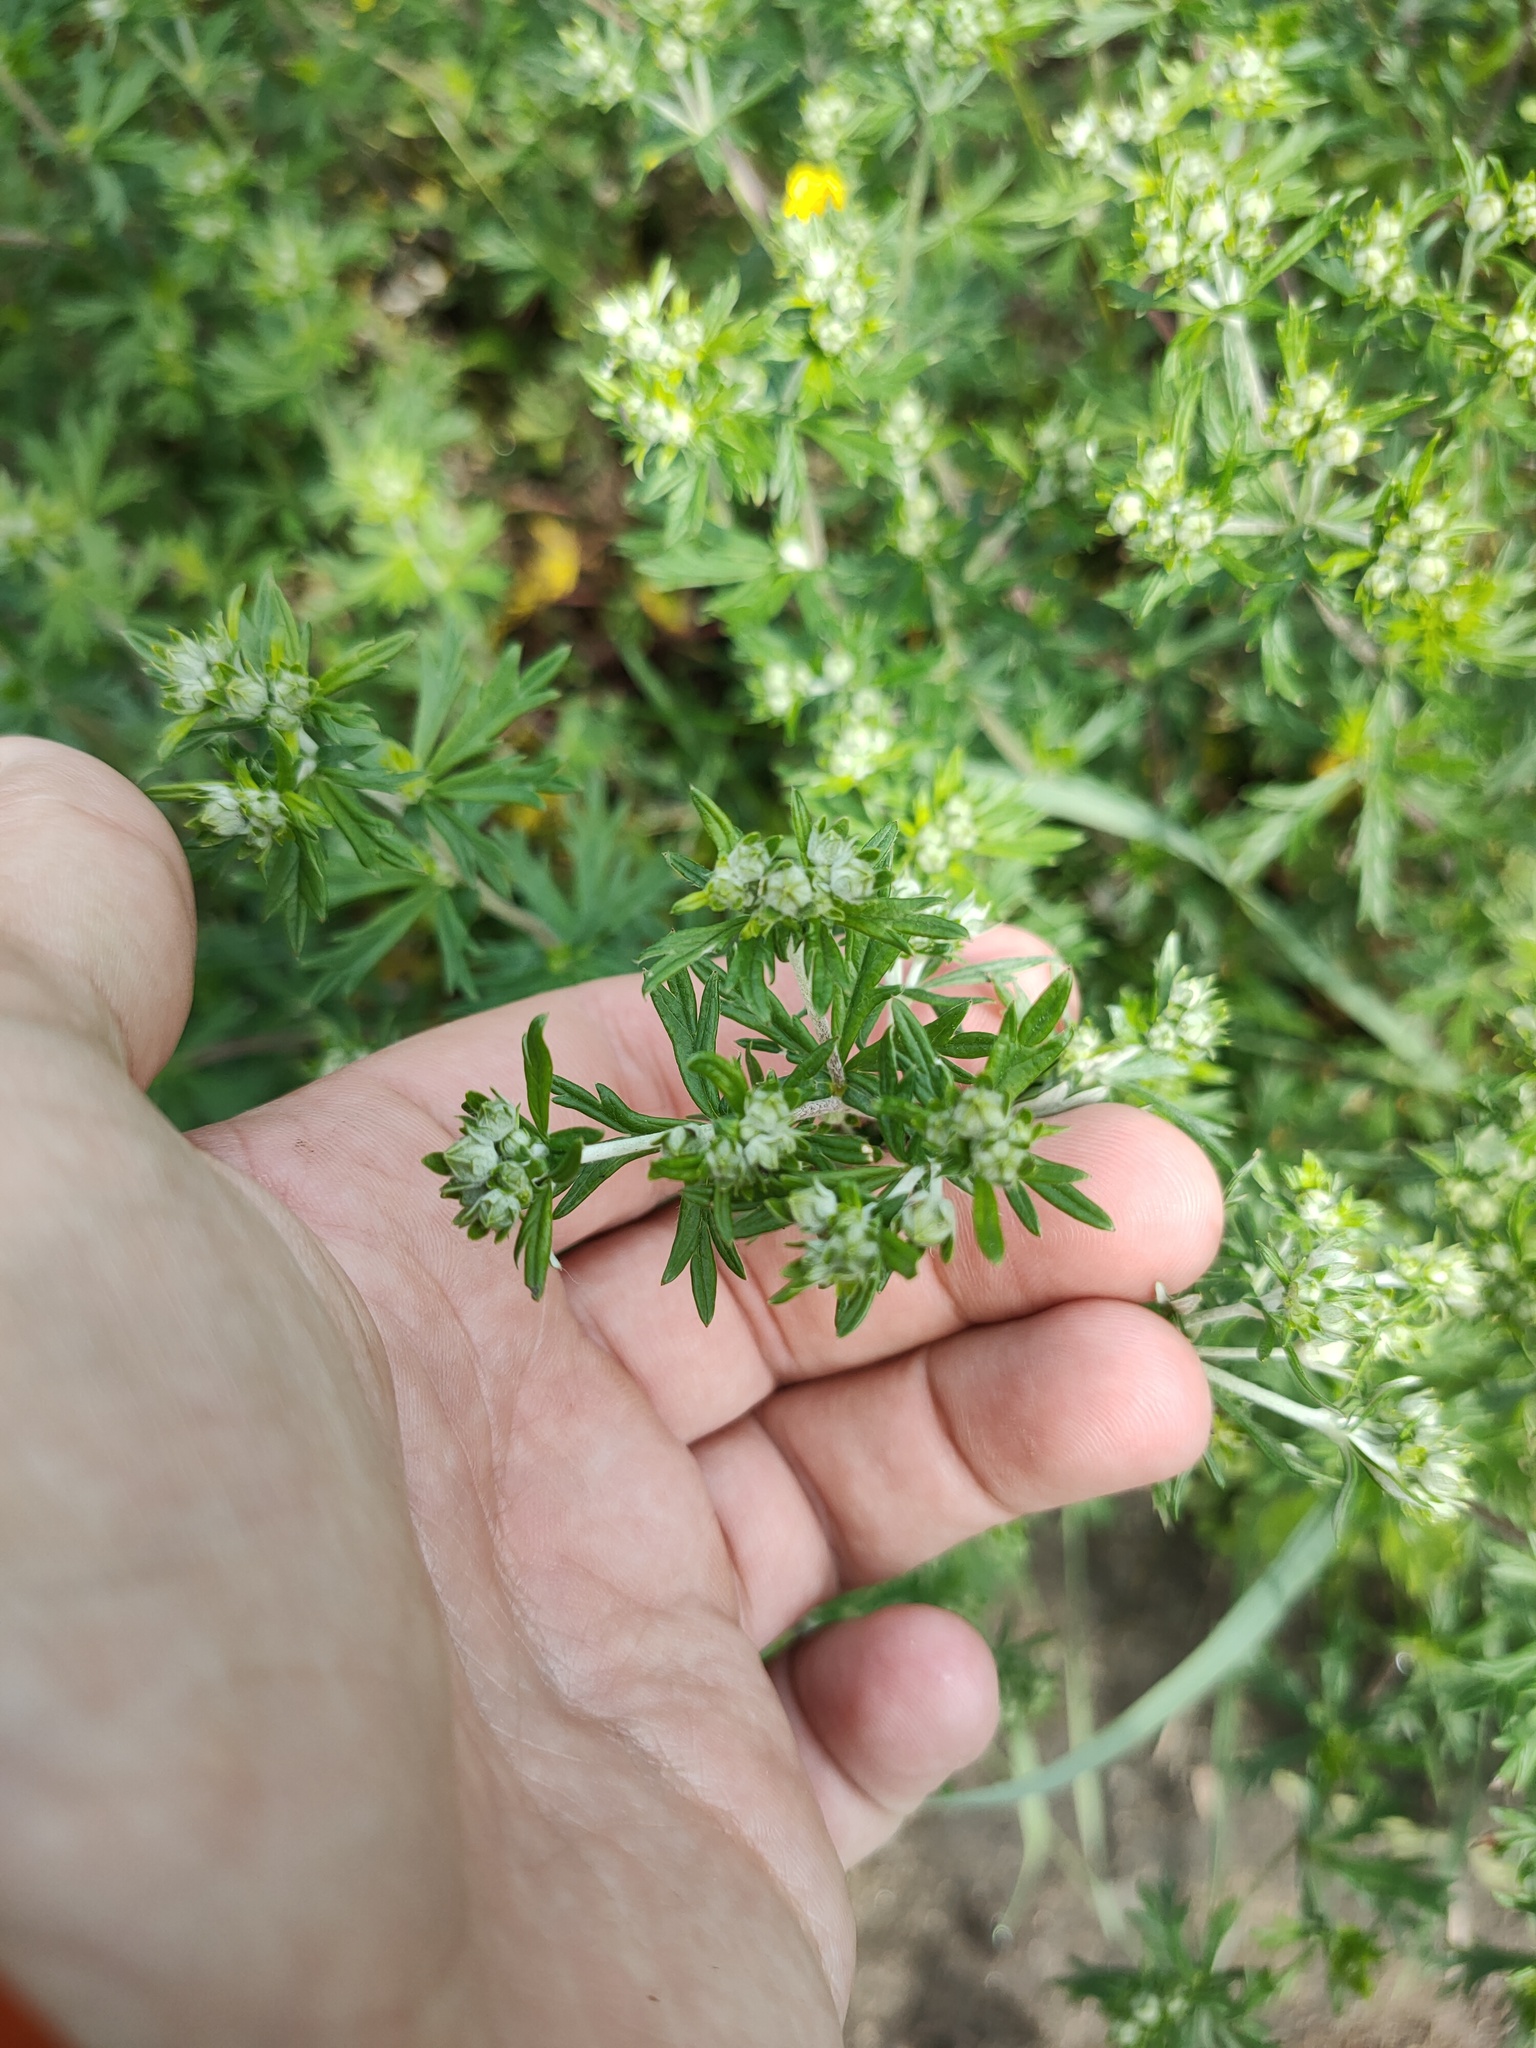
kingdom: Plantae
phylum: Tracheophyta
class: Magnoliopsida
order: Rosales
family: Rosaceae
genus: Potentilla
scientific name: Potentilla argentea
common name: Hoary cinquefoil
